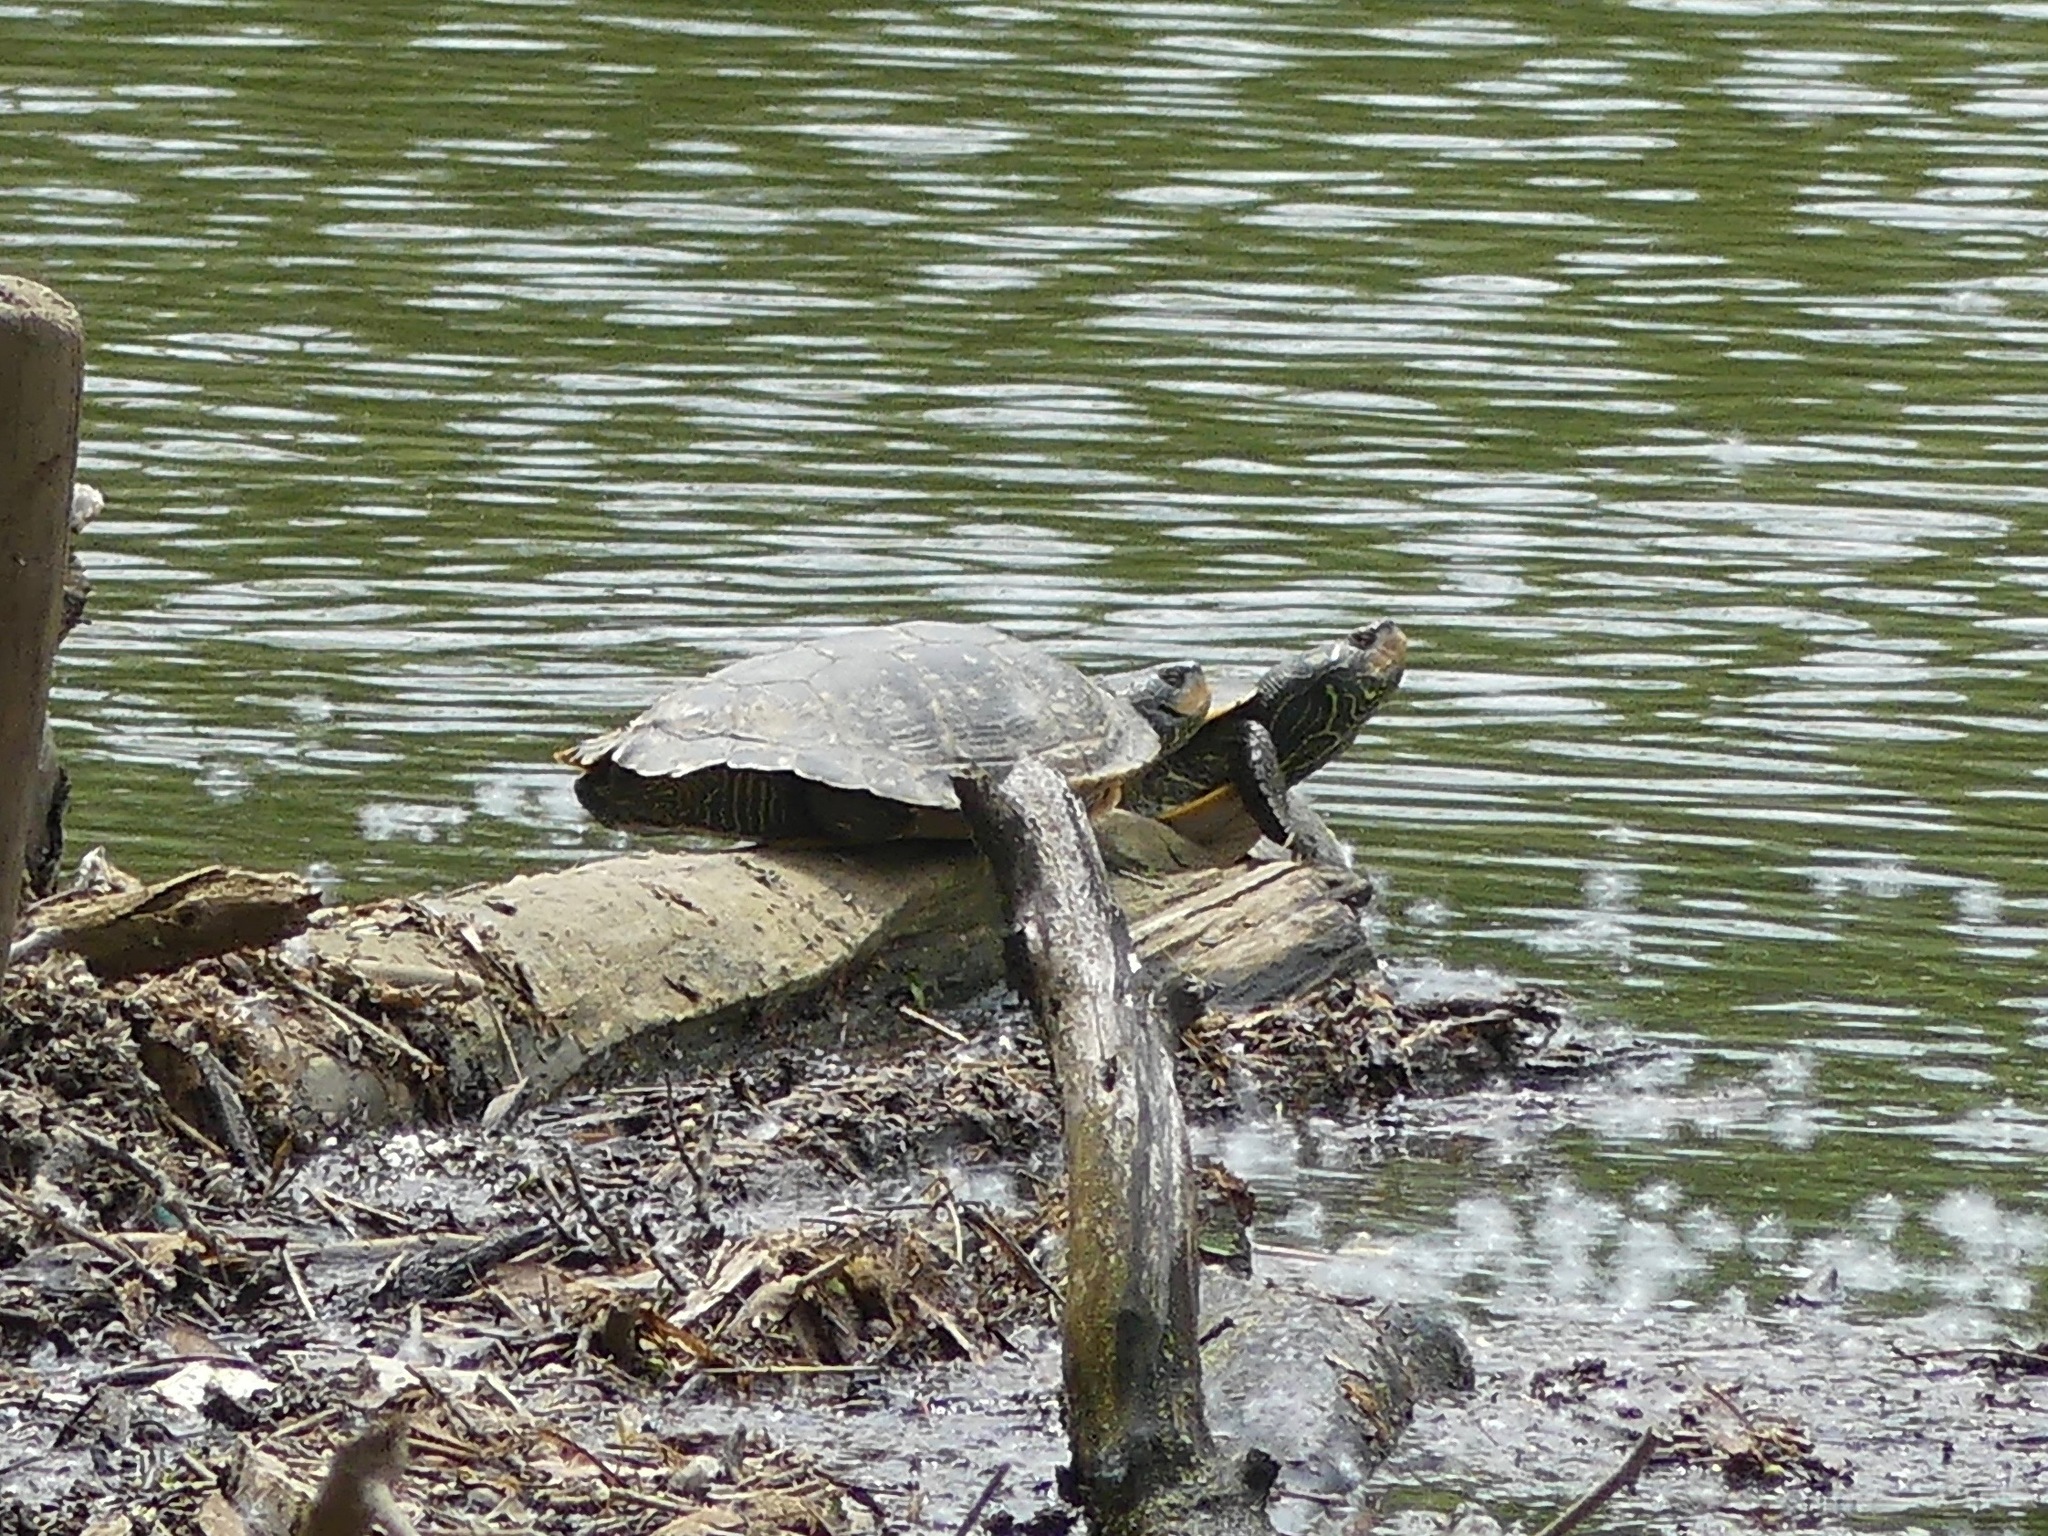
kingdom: Animalia
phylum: Chordata
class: Testudines
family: Emydidae
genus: Graptemys
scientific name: Graptemys geographica
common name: Common map turtle
